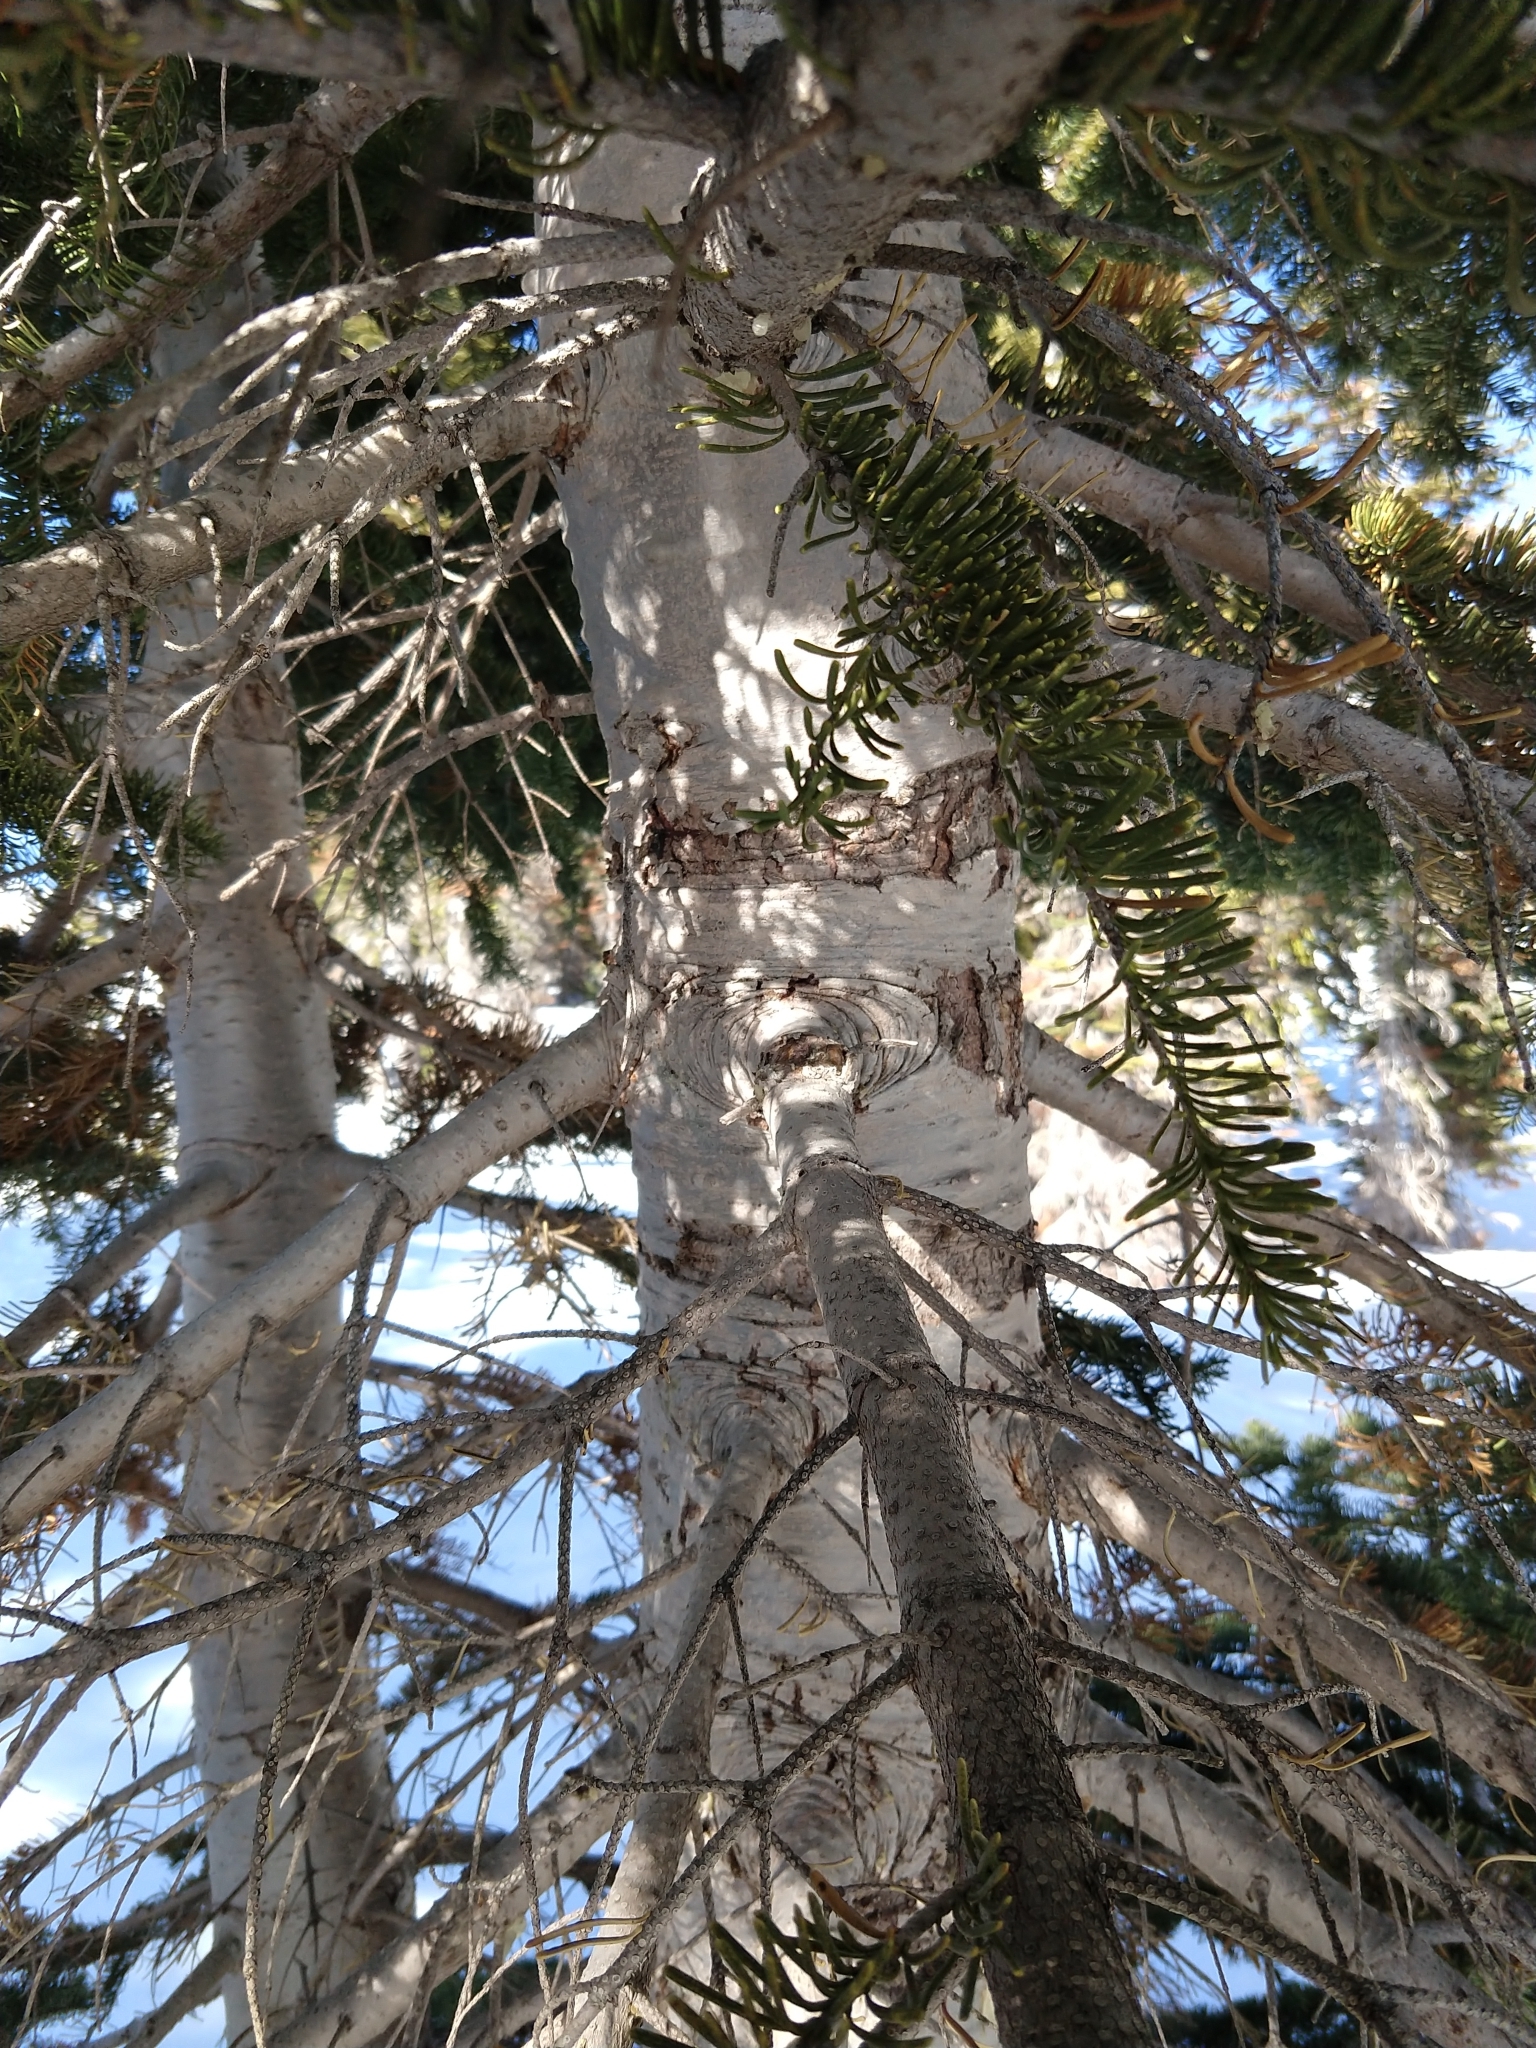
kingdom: Plantae
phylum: Tracheophyta
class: Pinopsida
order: Pinales
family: Pinaceae
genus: Abies
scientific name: Abies magnifica bis
